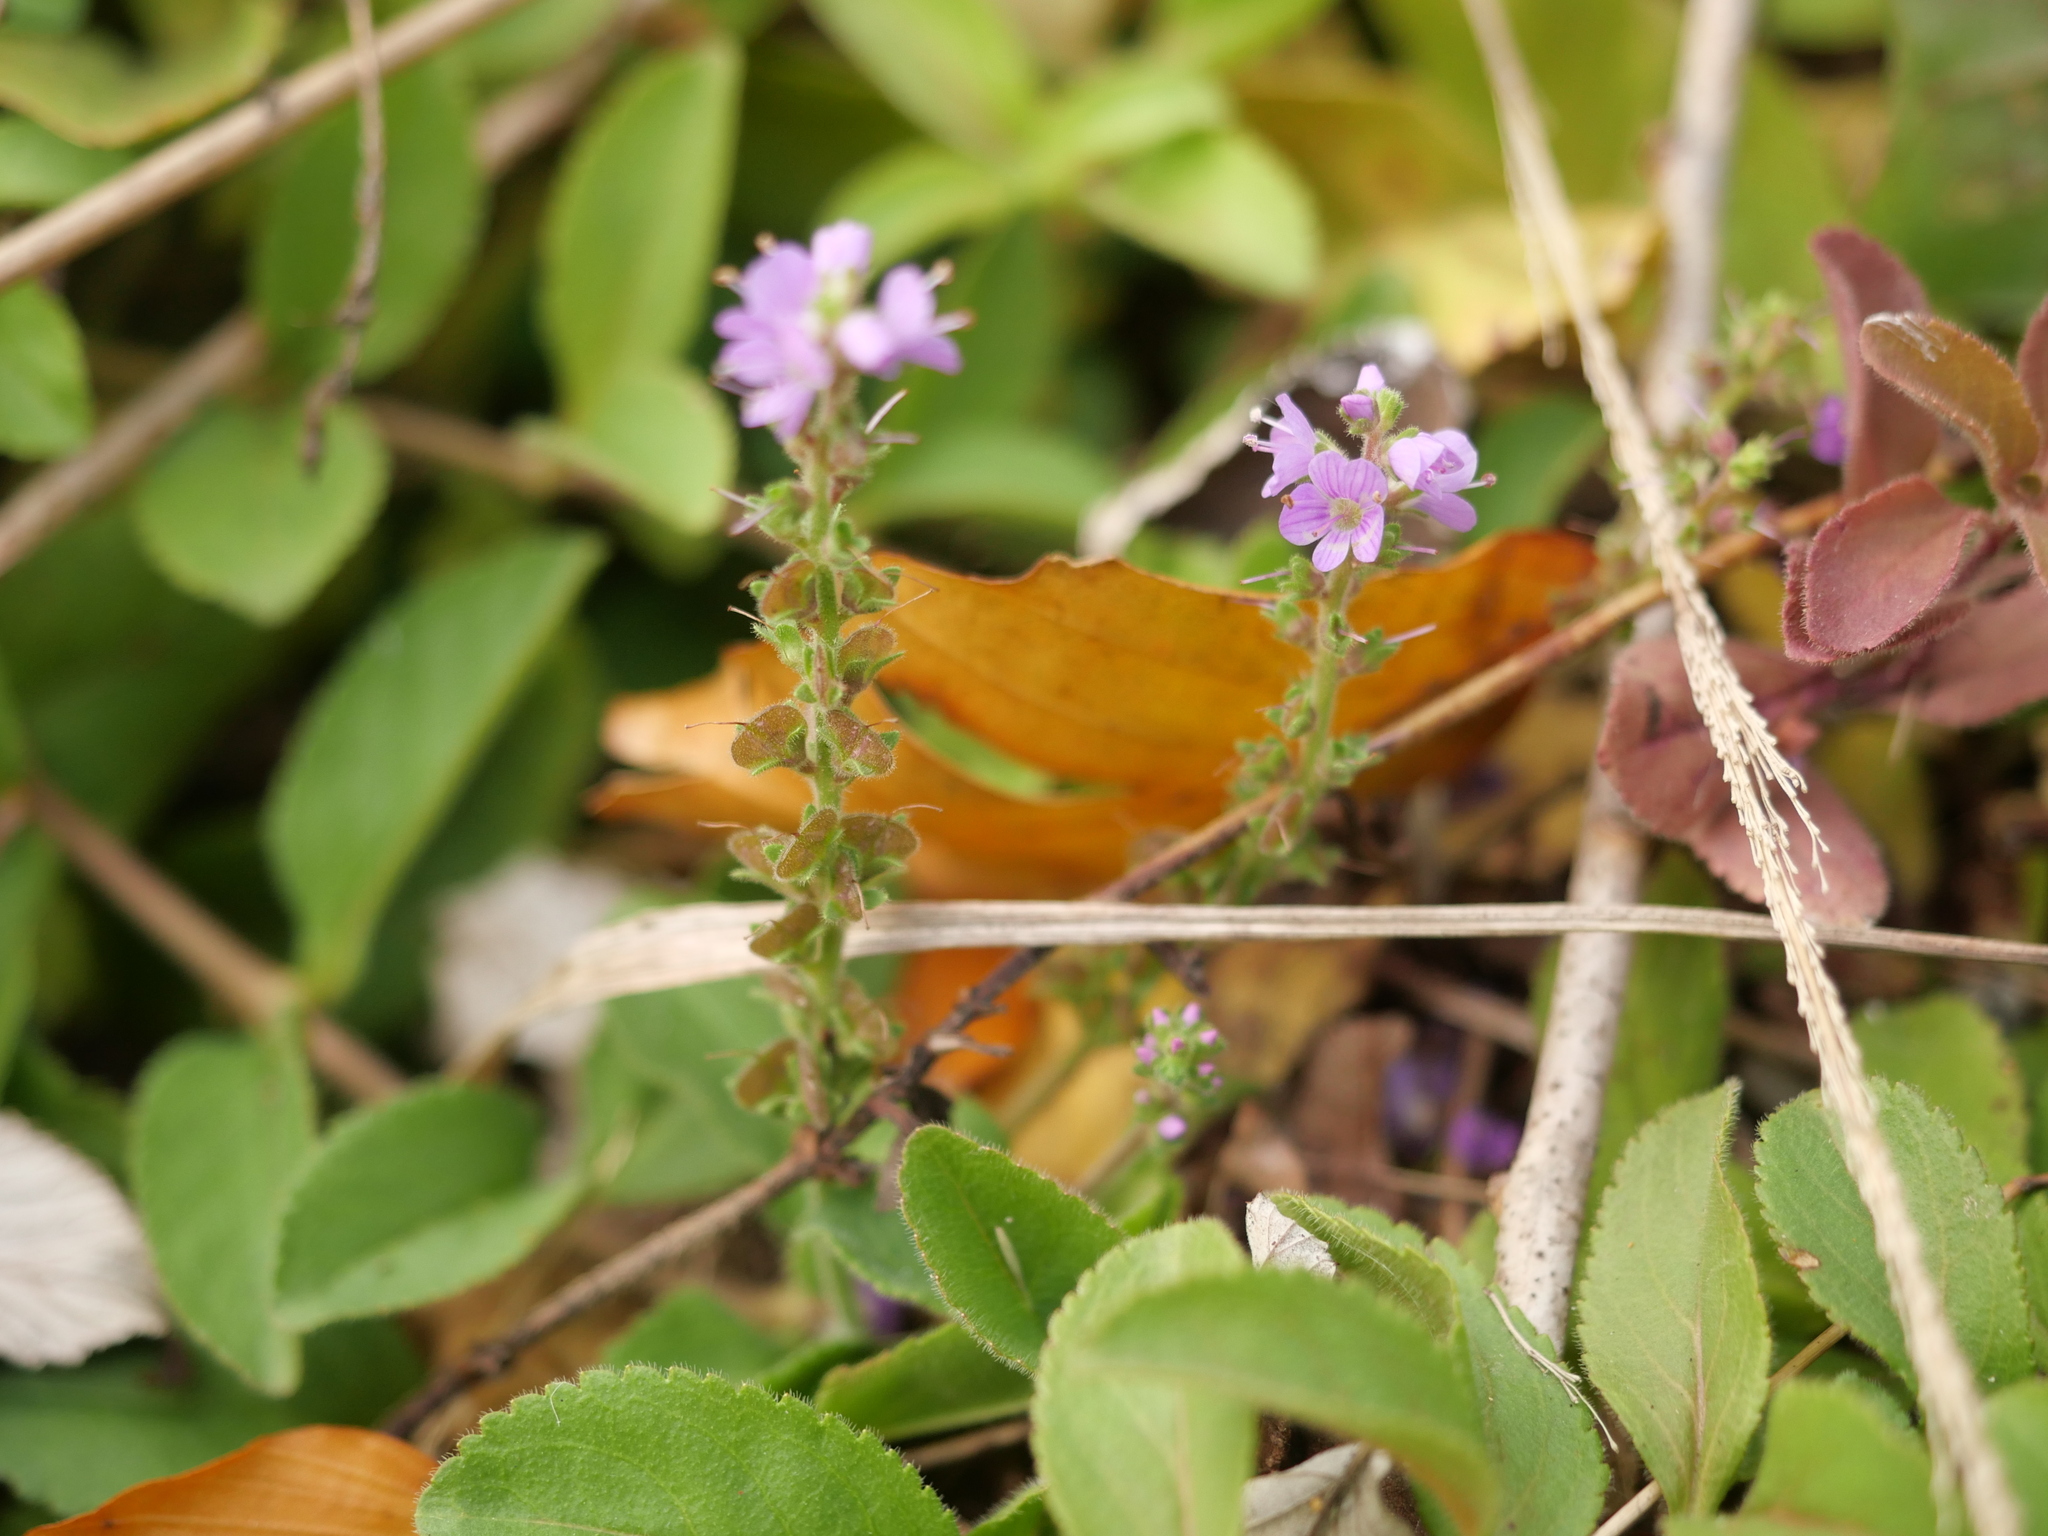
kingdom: Plantae
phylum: Tracheophyta
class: Magnoliopsida
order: Lamiales
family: Plantaginaceae
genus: Veronica
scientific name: Veronica officinalis
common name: Common speedwell
